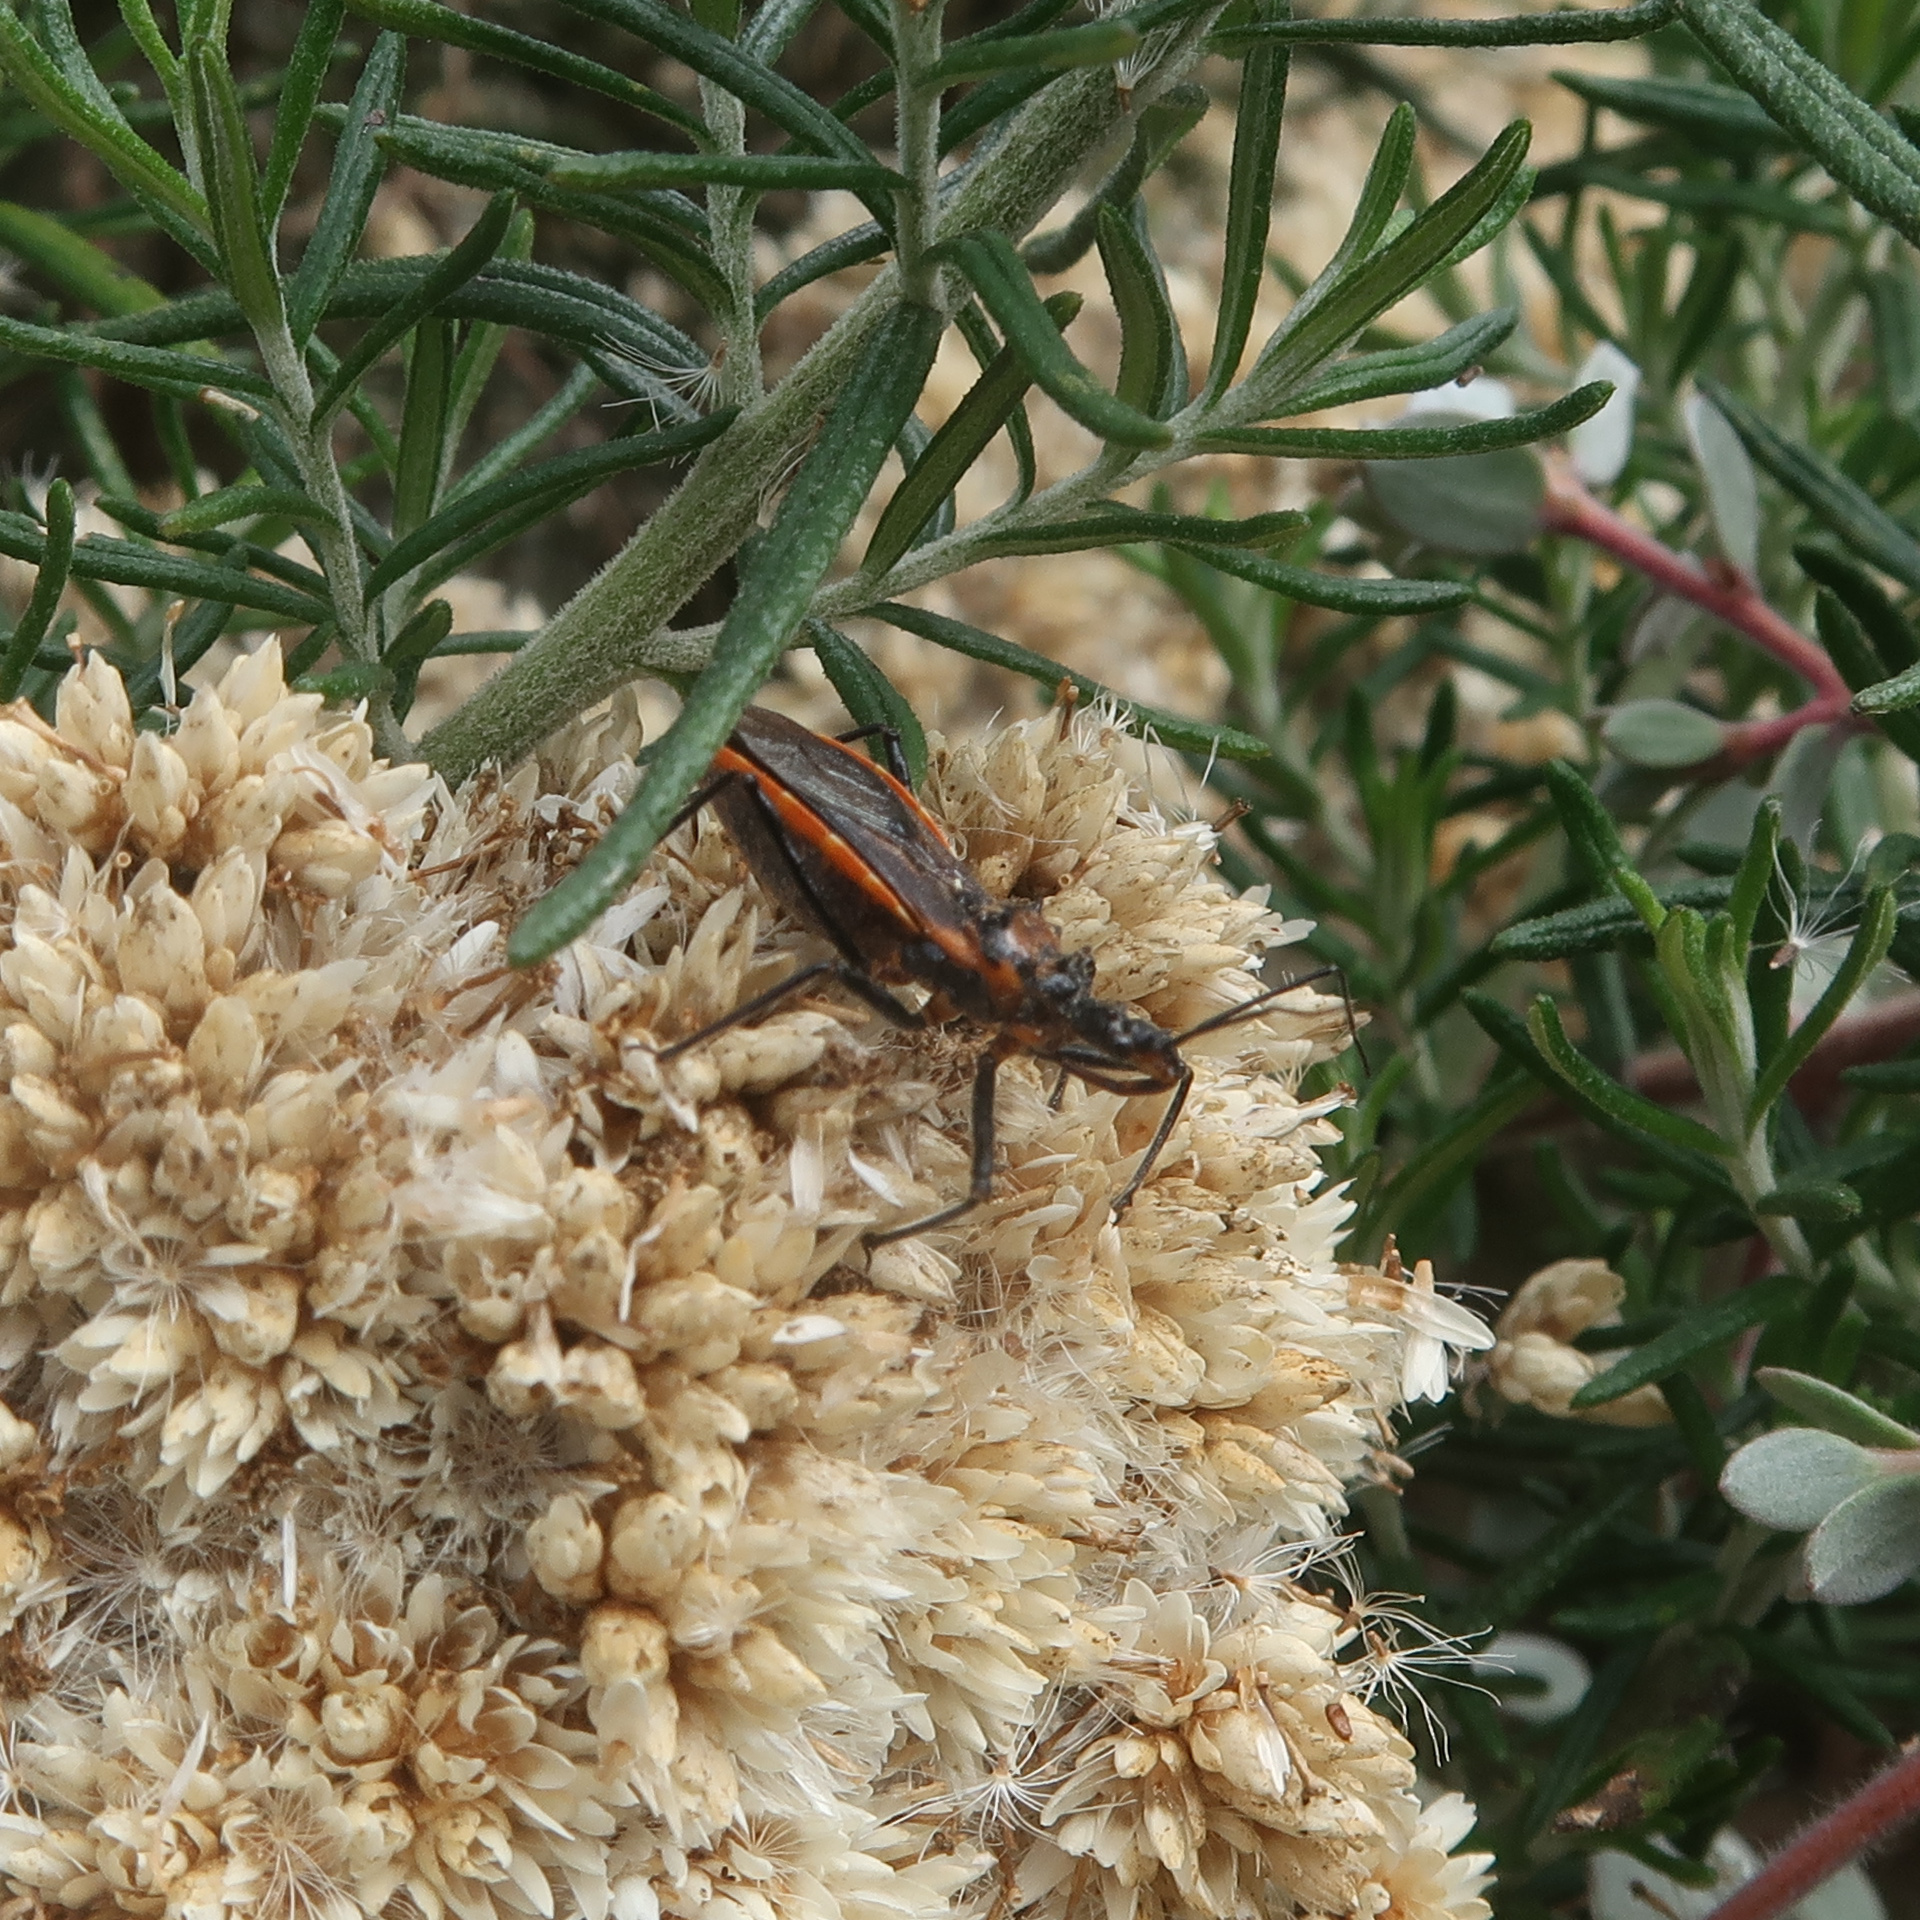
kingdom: Animalia
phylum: Arthropoda
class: Insecta
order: Hemiptera
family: Reduviidae
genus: Gminatus
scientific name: Gminatus australis
